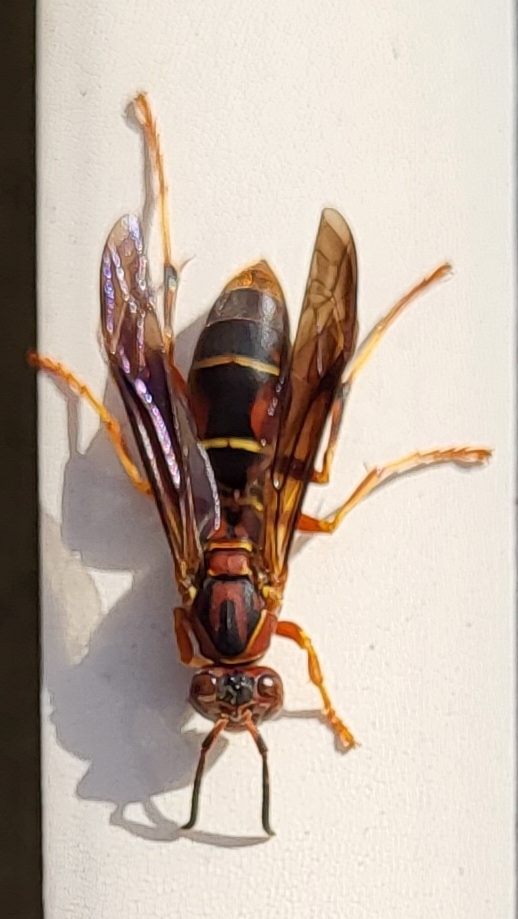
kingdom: Animalia
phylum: Arthropoda
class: Insecta
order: Hymenoptera
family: Eumenidae
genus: Polistes
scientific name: Polistes fuscatus
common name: Dark paper wasp
